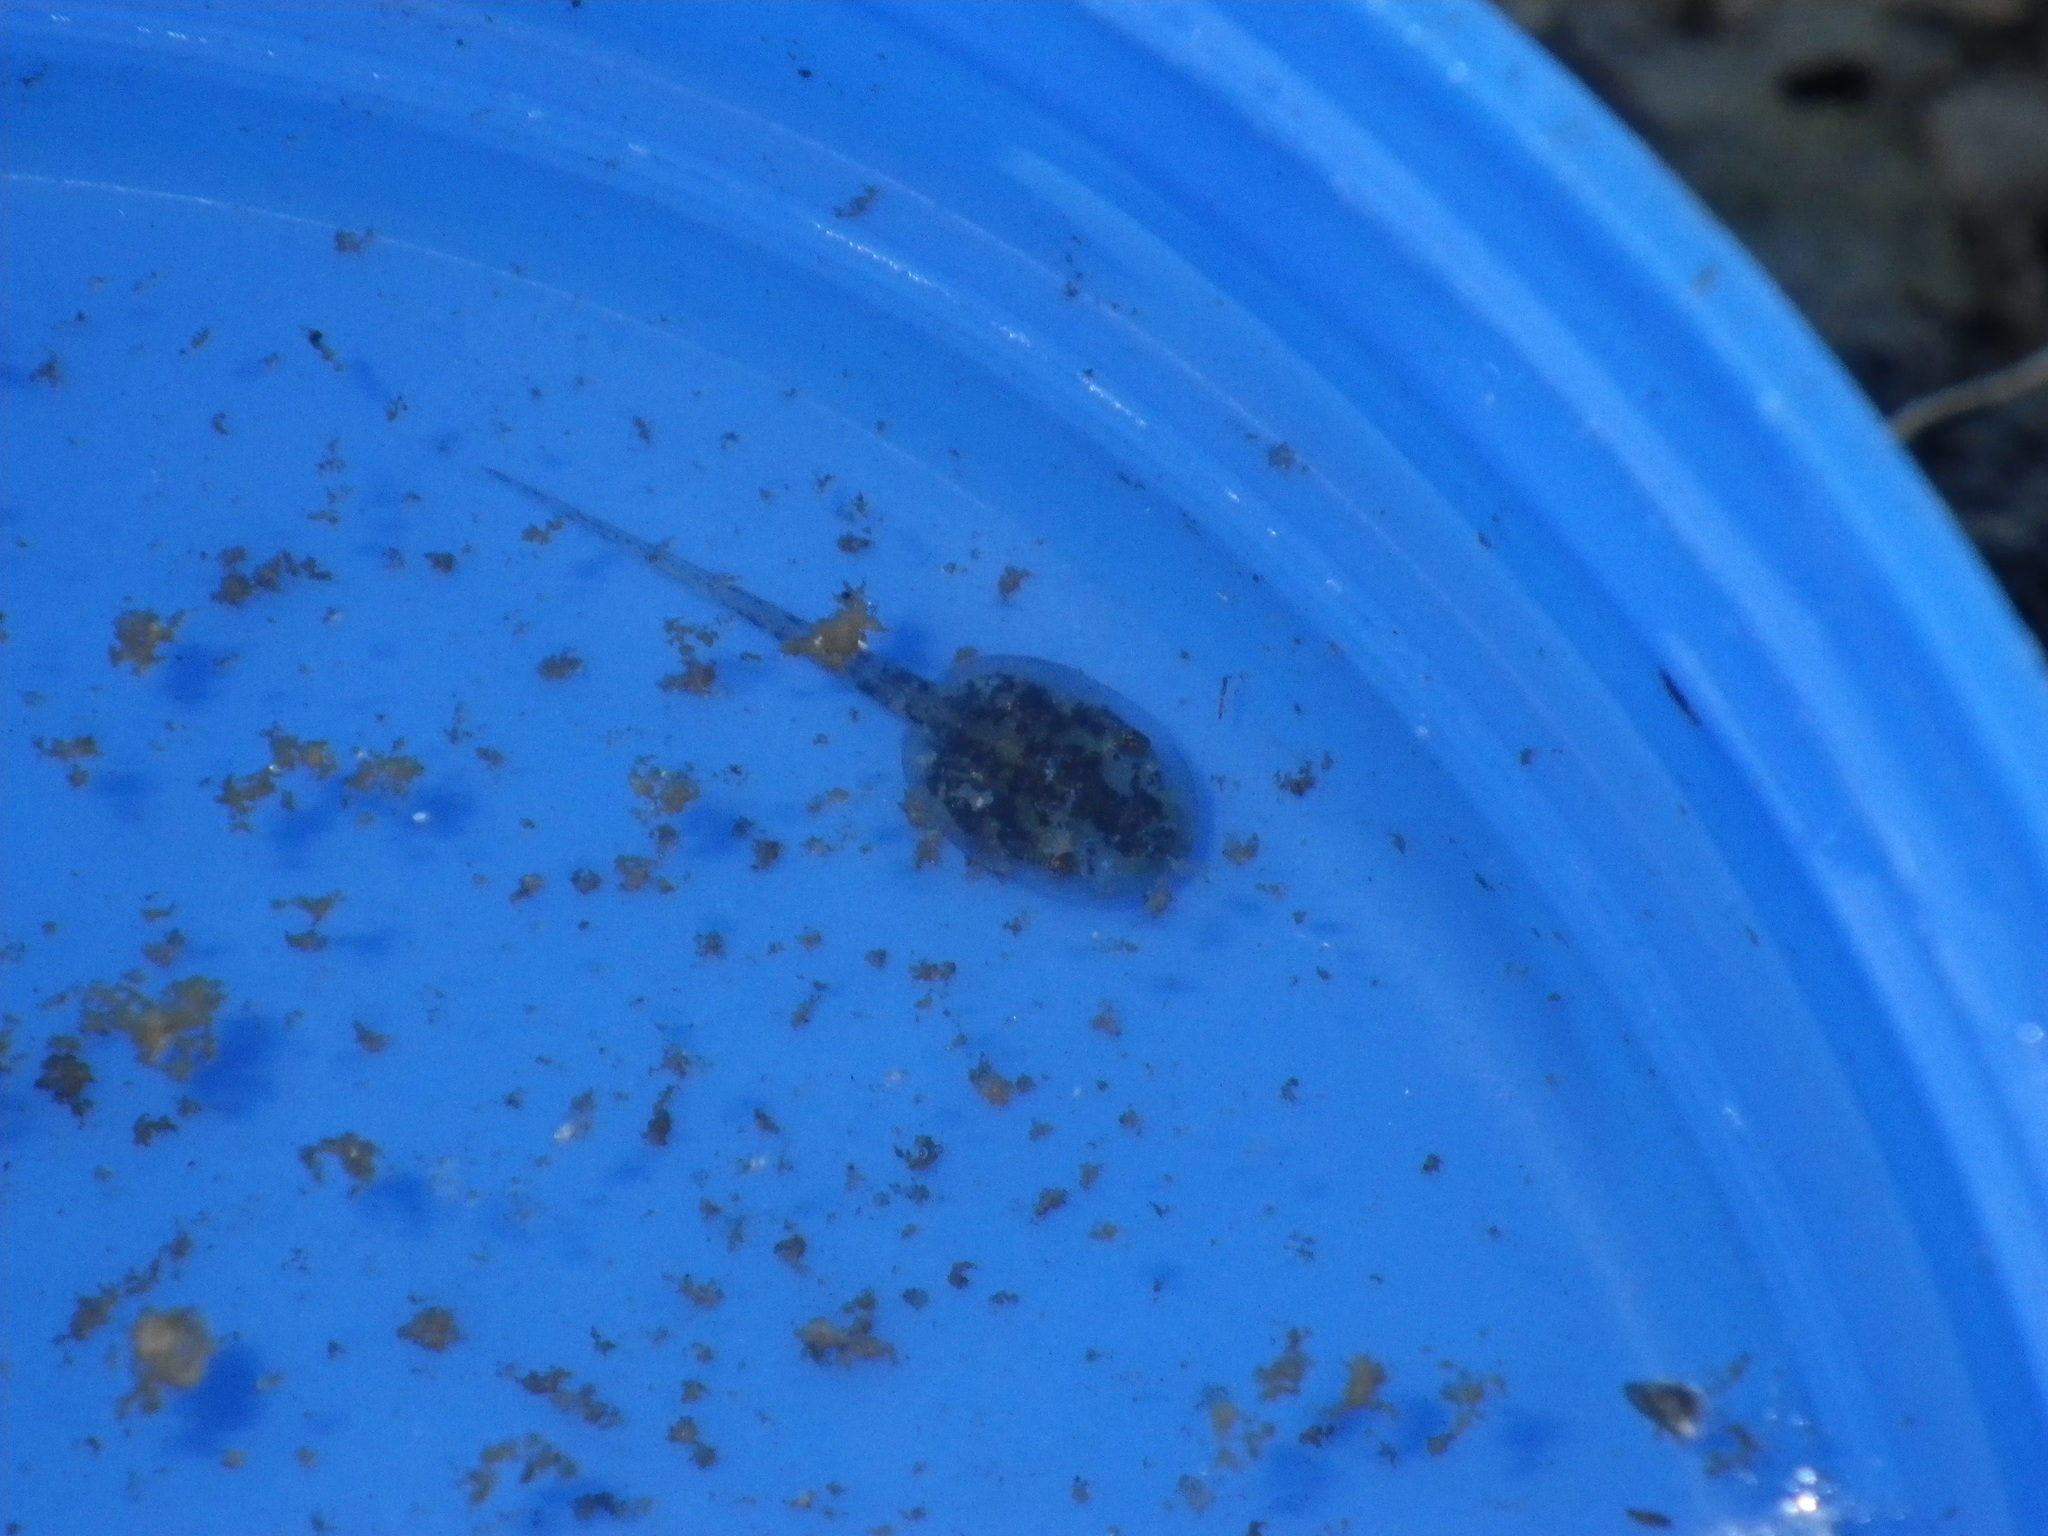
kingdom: Animalia
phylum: Chordata
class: Amphibia
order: Anura
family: Ranidae
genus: Lithobates
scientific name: Lithobates catesbeianus
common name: American bullfrog
